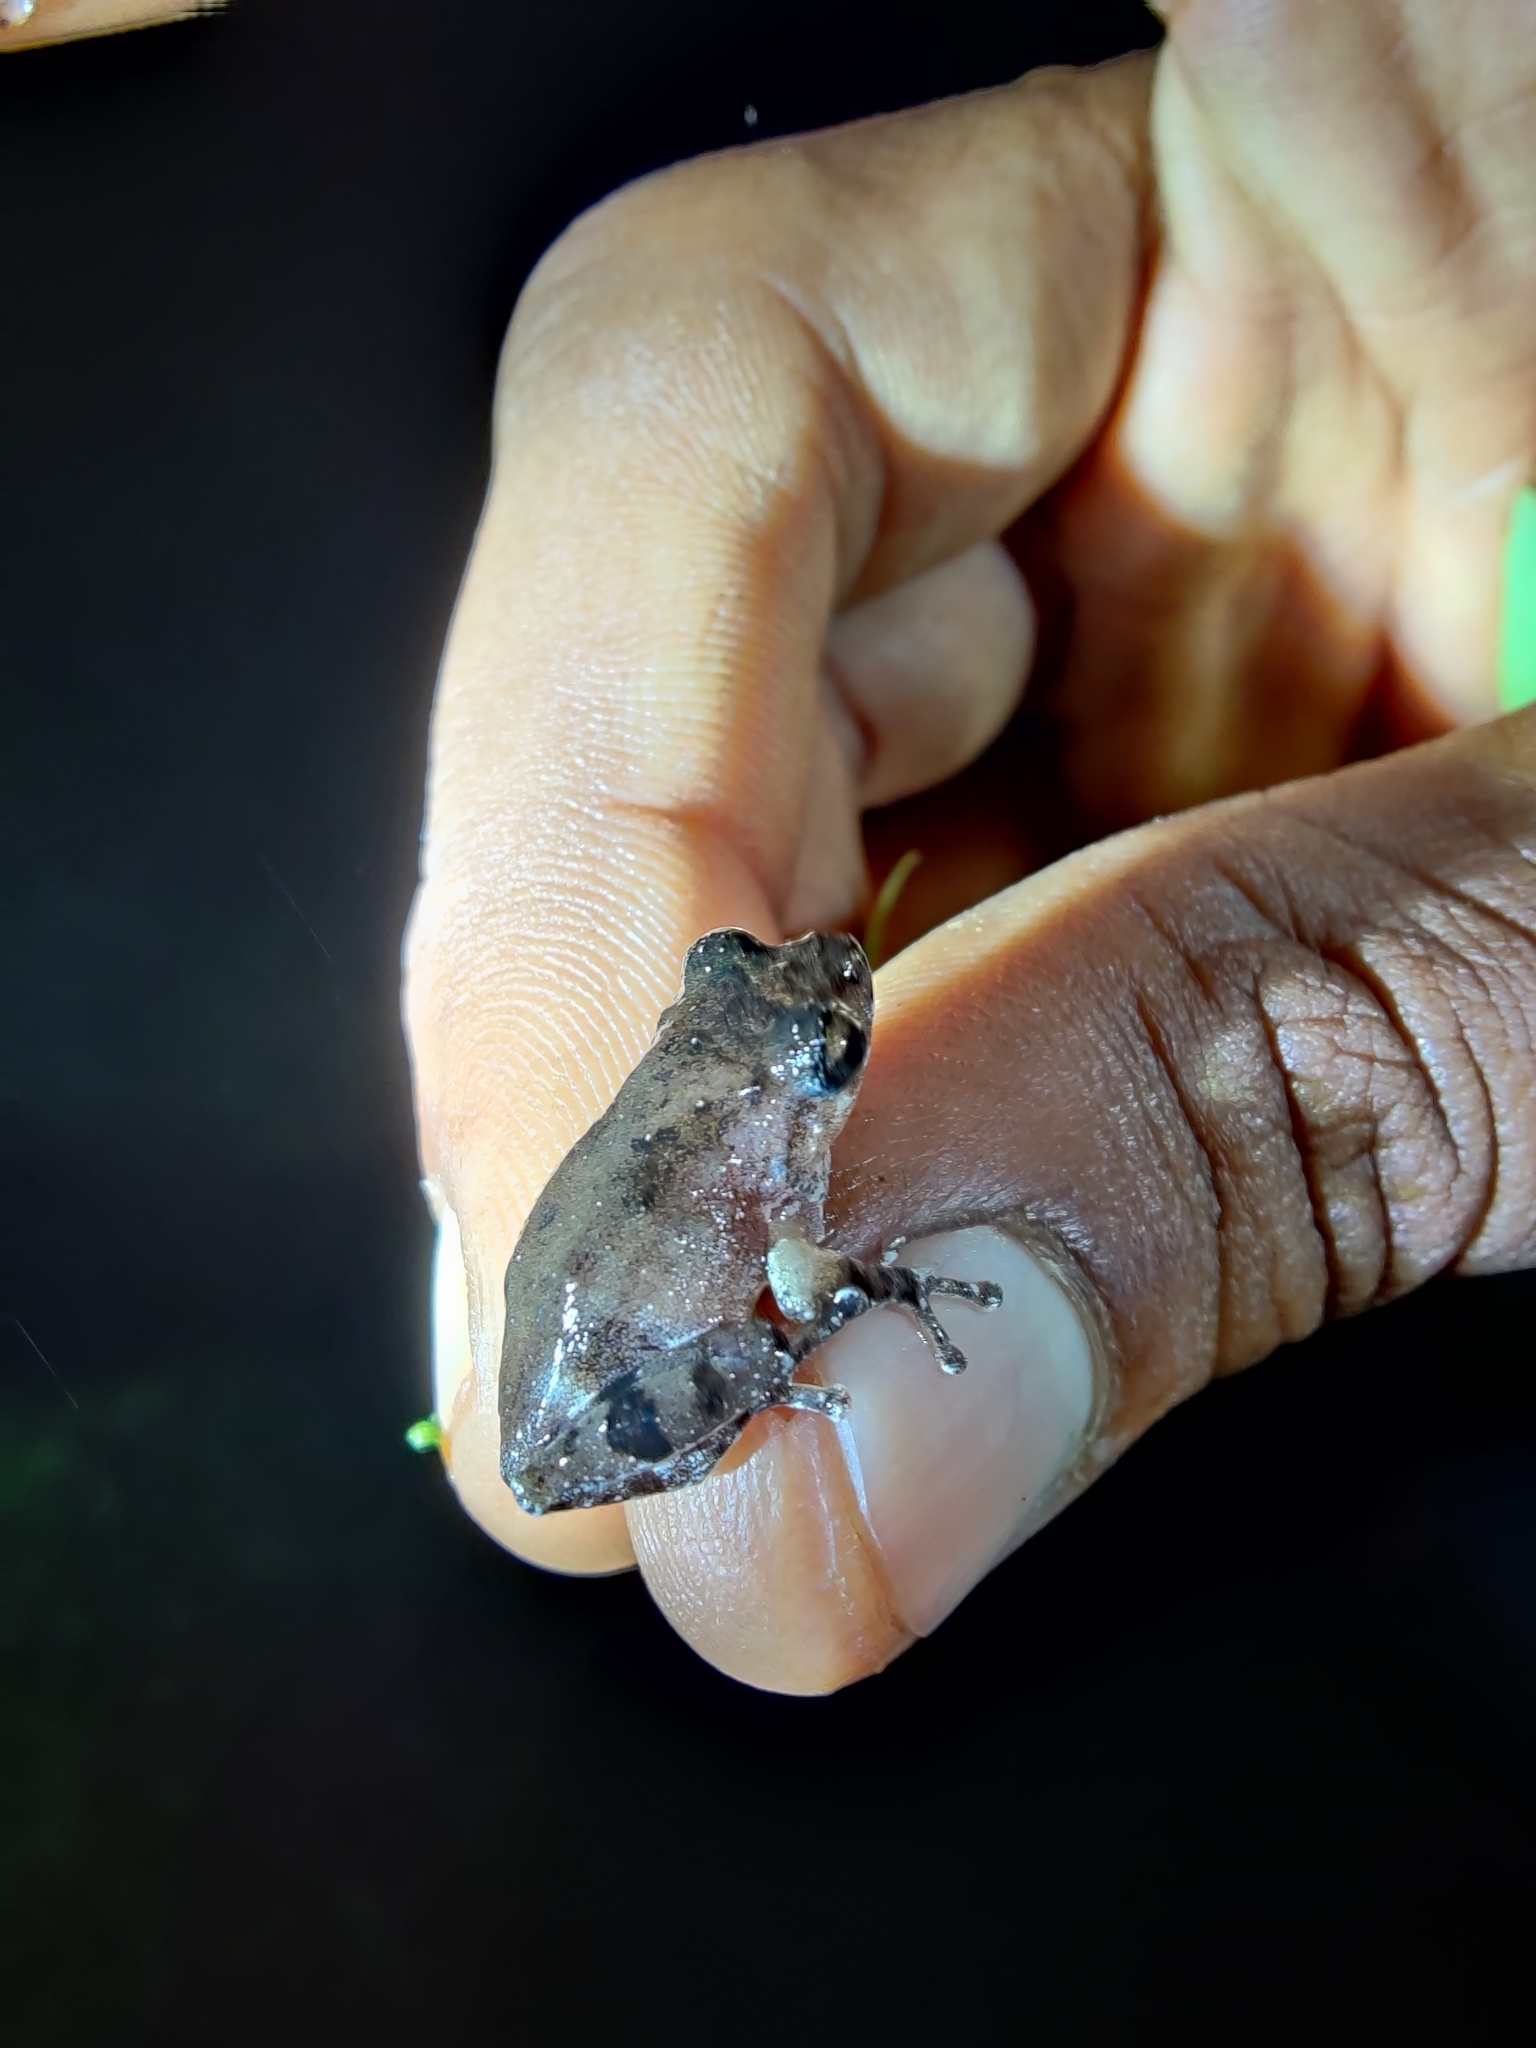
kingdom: Animalia
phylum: Chordata
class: Amphibia
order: Anura
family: Rhacophoridae
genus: Raorchestes
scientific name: Raorchestes tuberohumerus
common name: Kudremukh bush frog
